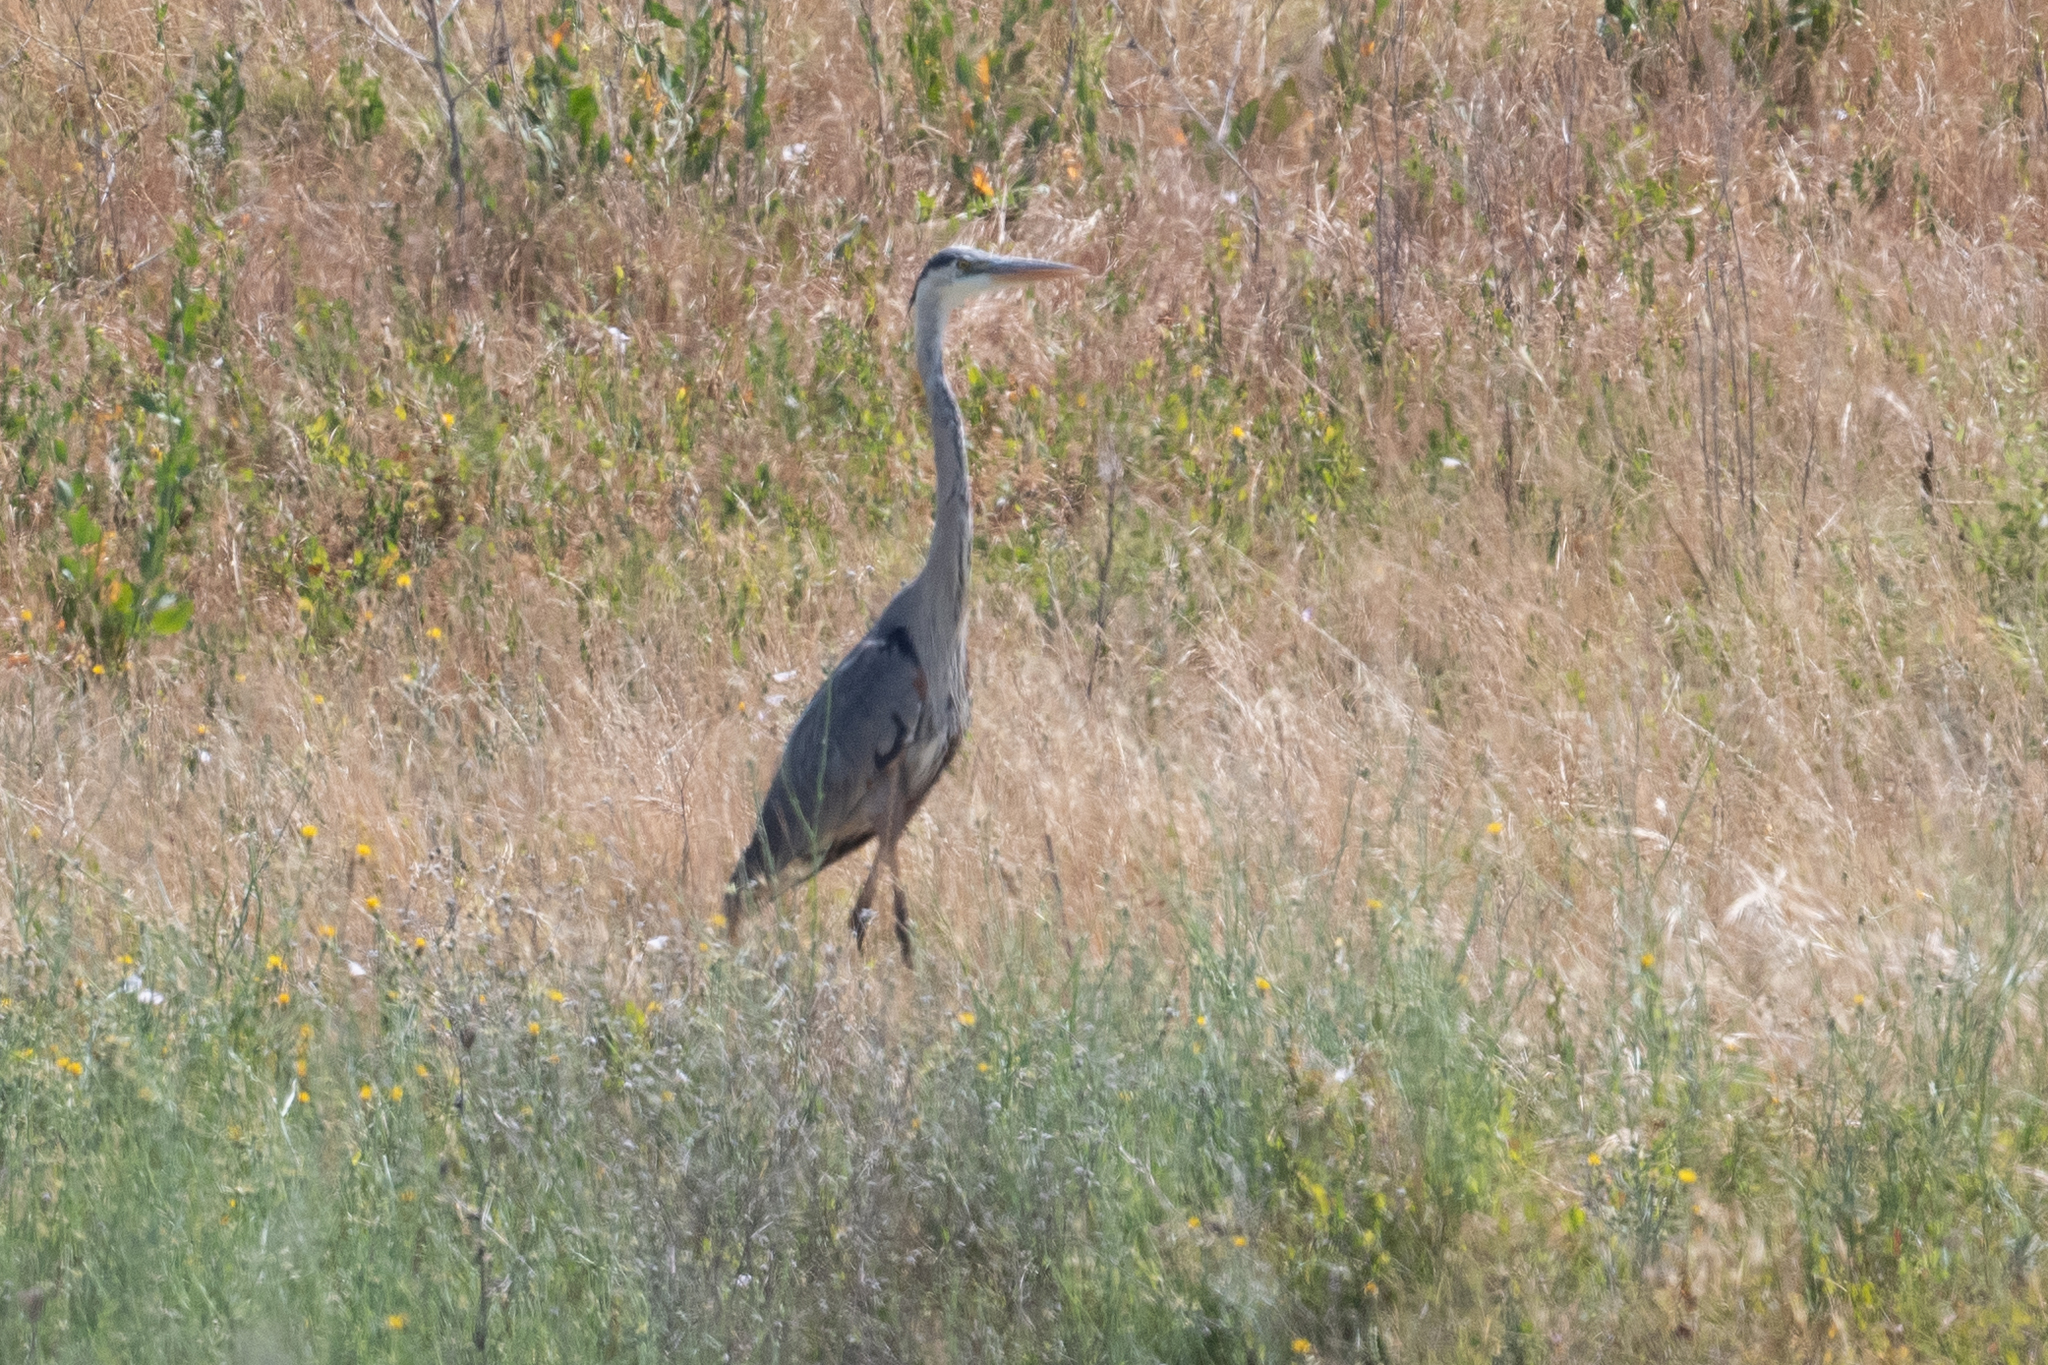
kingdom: Animalia
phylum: Chordata
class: Aves
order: Pelecaniformes
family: Ardeidae
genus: Ardea
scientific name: Ardea herodias
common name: Great blue heron
